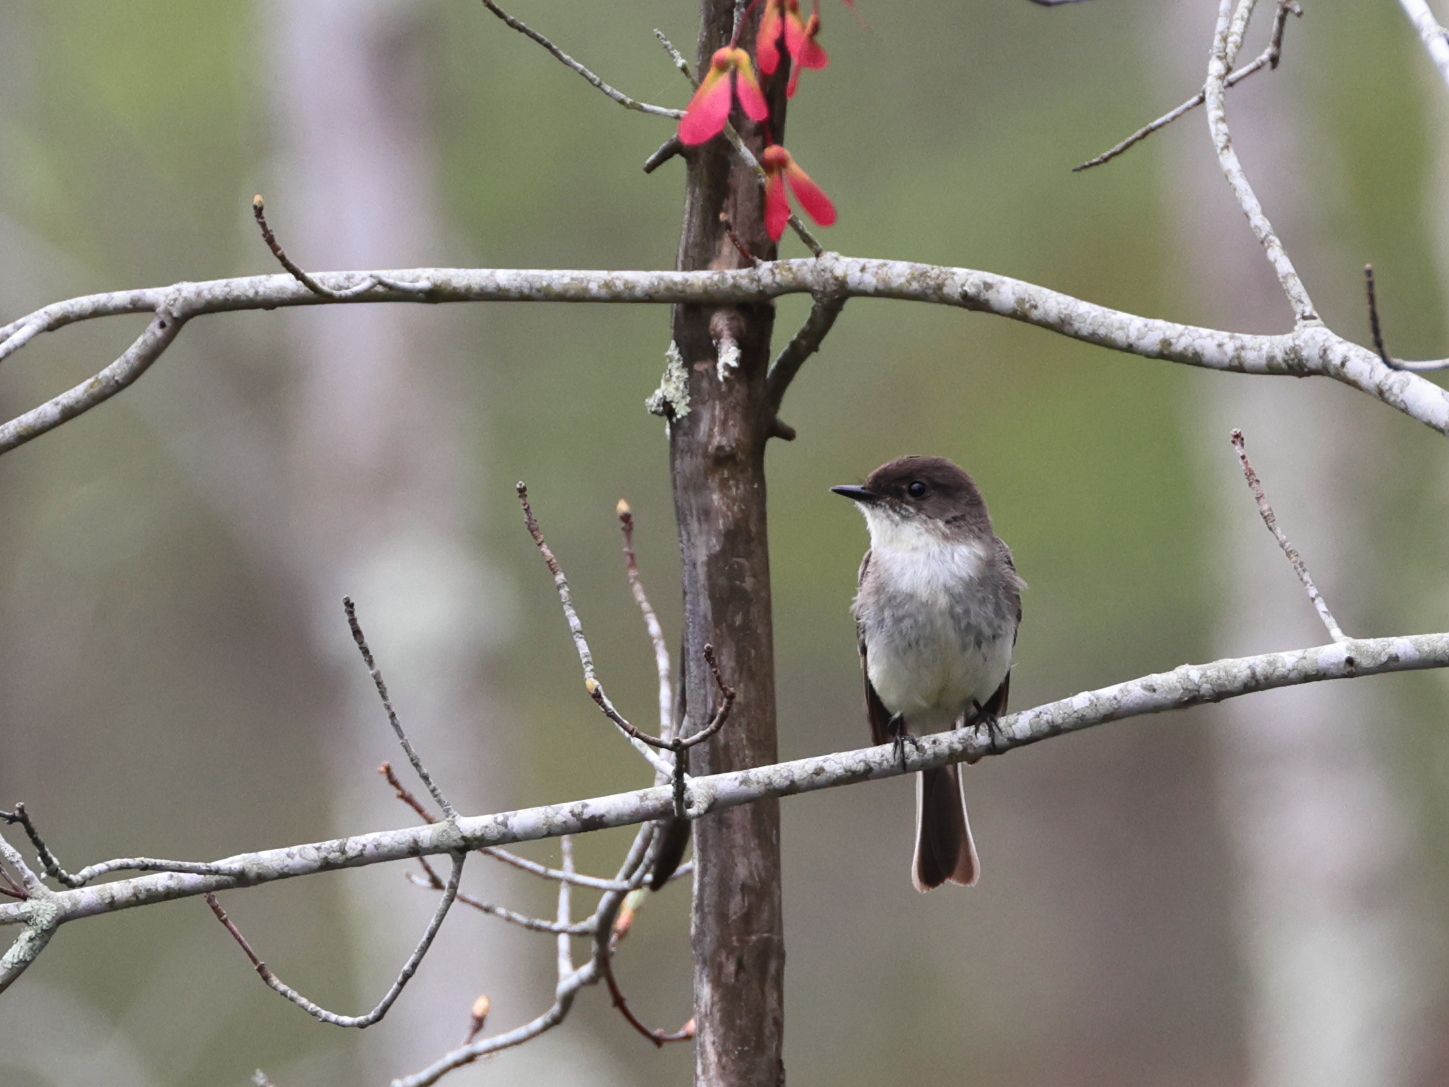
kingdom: Animalia
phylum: Chordata
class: Aves
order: Passeriformes
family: Tyrannidae
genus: Sayornis
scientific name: Sayornis phoebe
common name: Eastern phoebe
